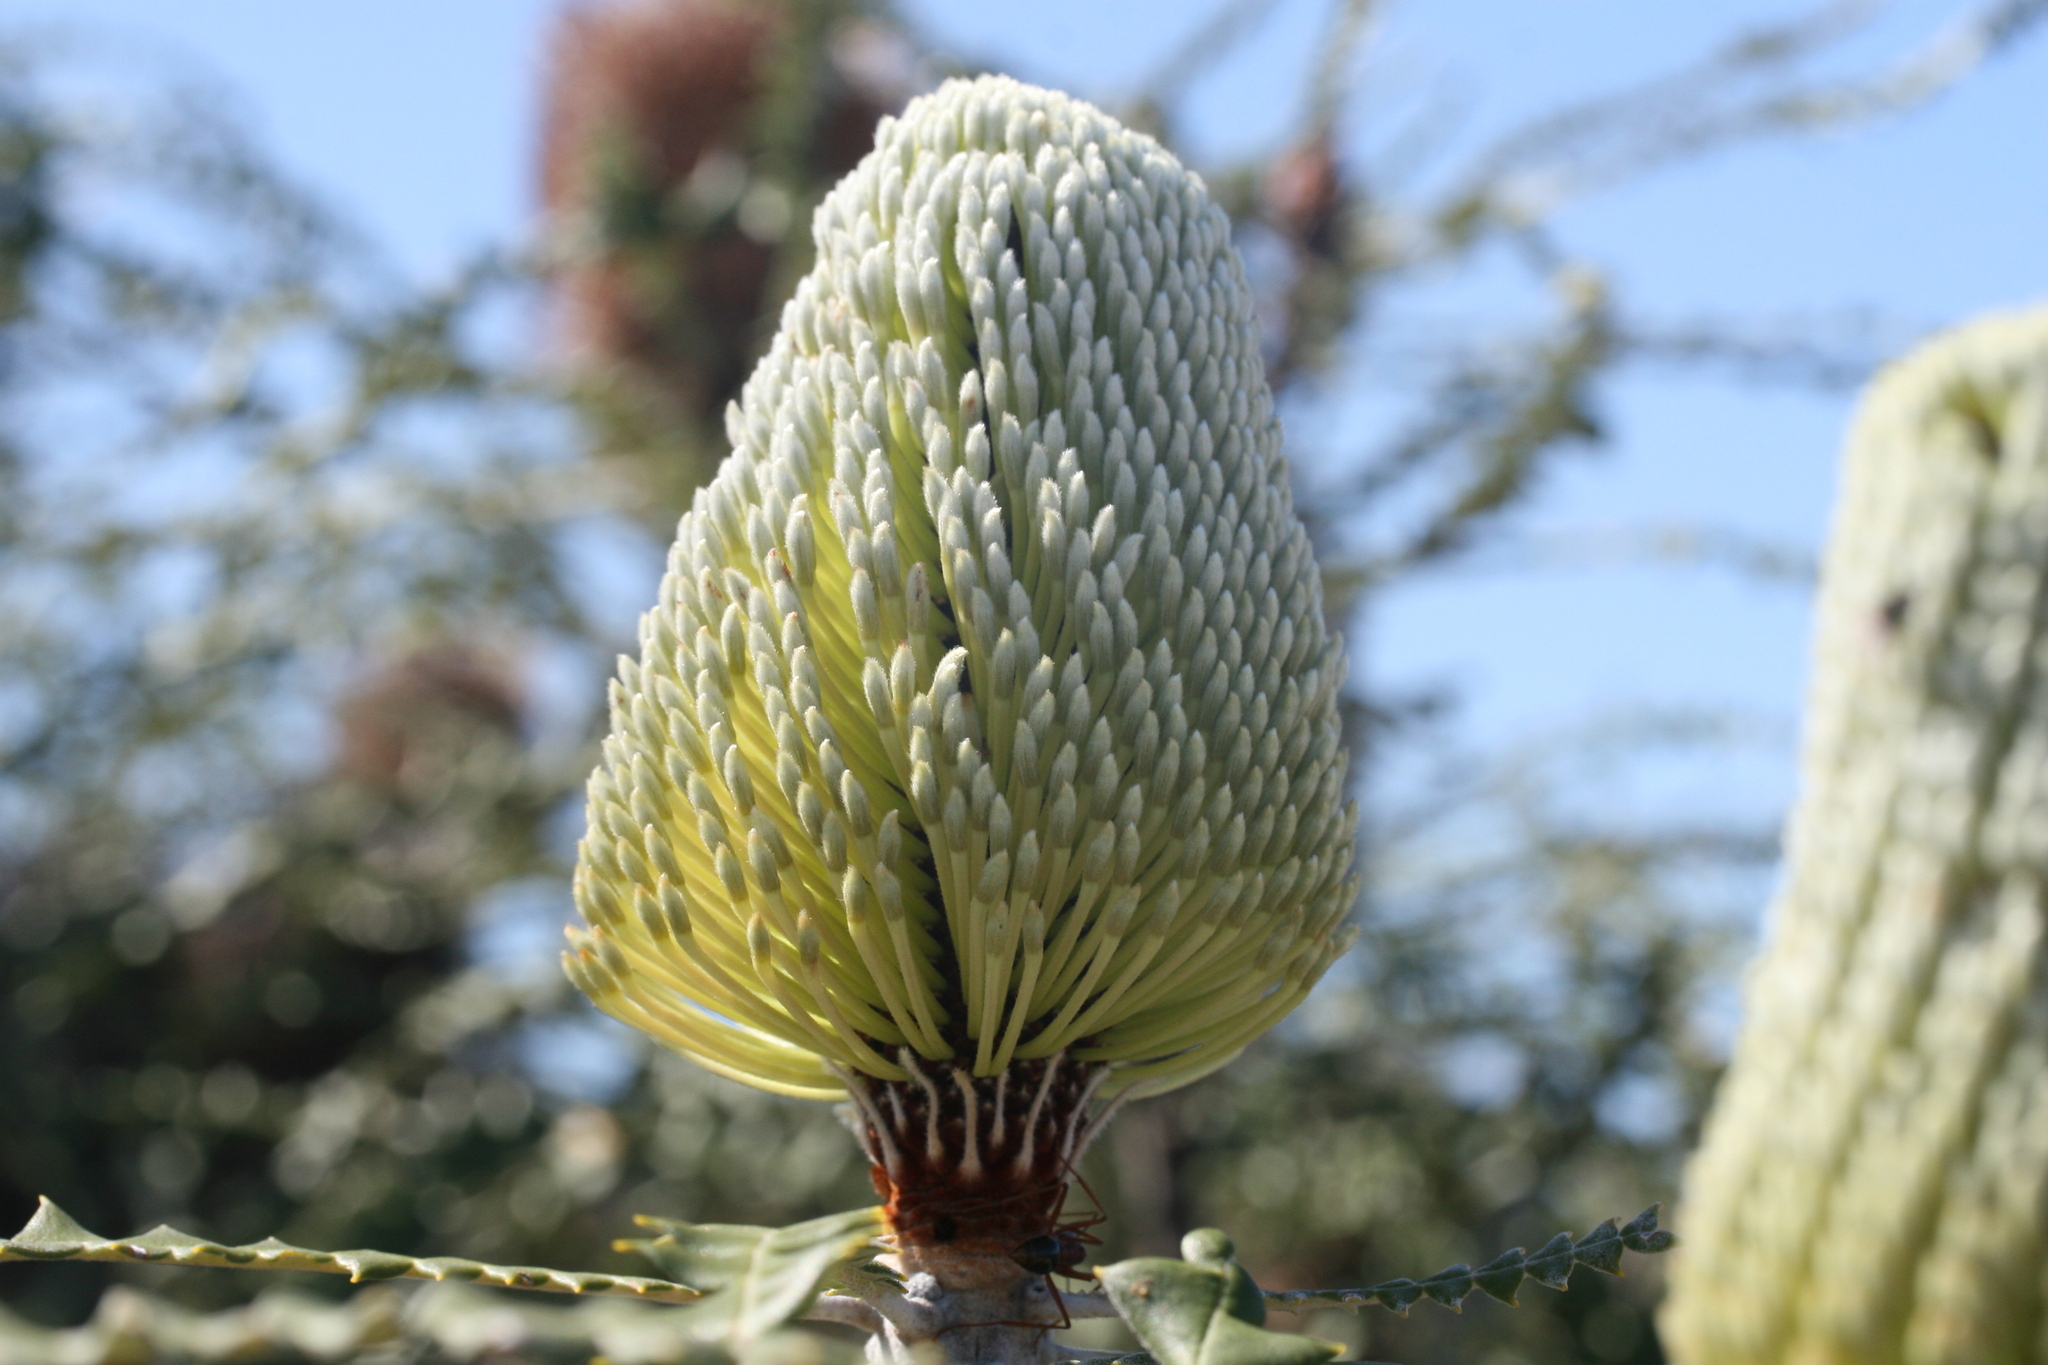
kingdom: Plantae
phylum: Tracheophyta
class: Magnoliopsida
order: Proteales
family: Proteaceae
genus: Banksia
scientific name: Banksia speciosa
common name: Showy banksia
